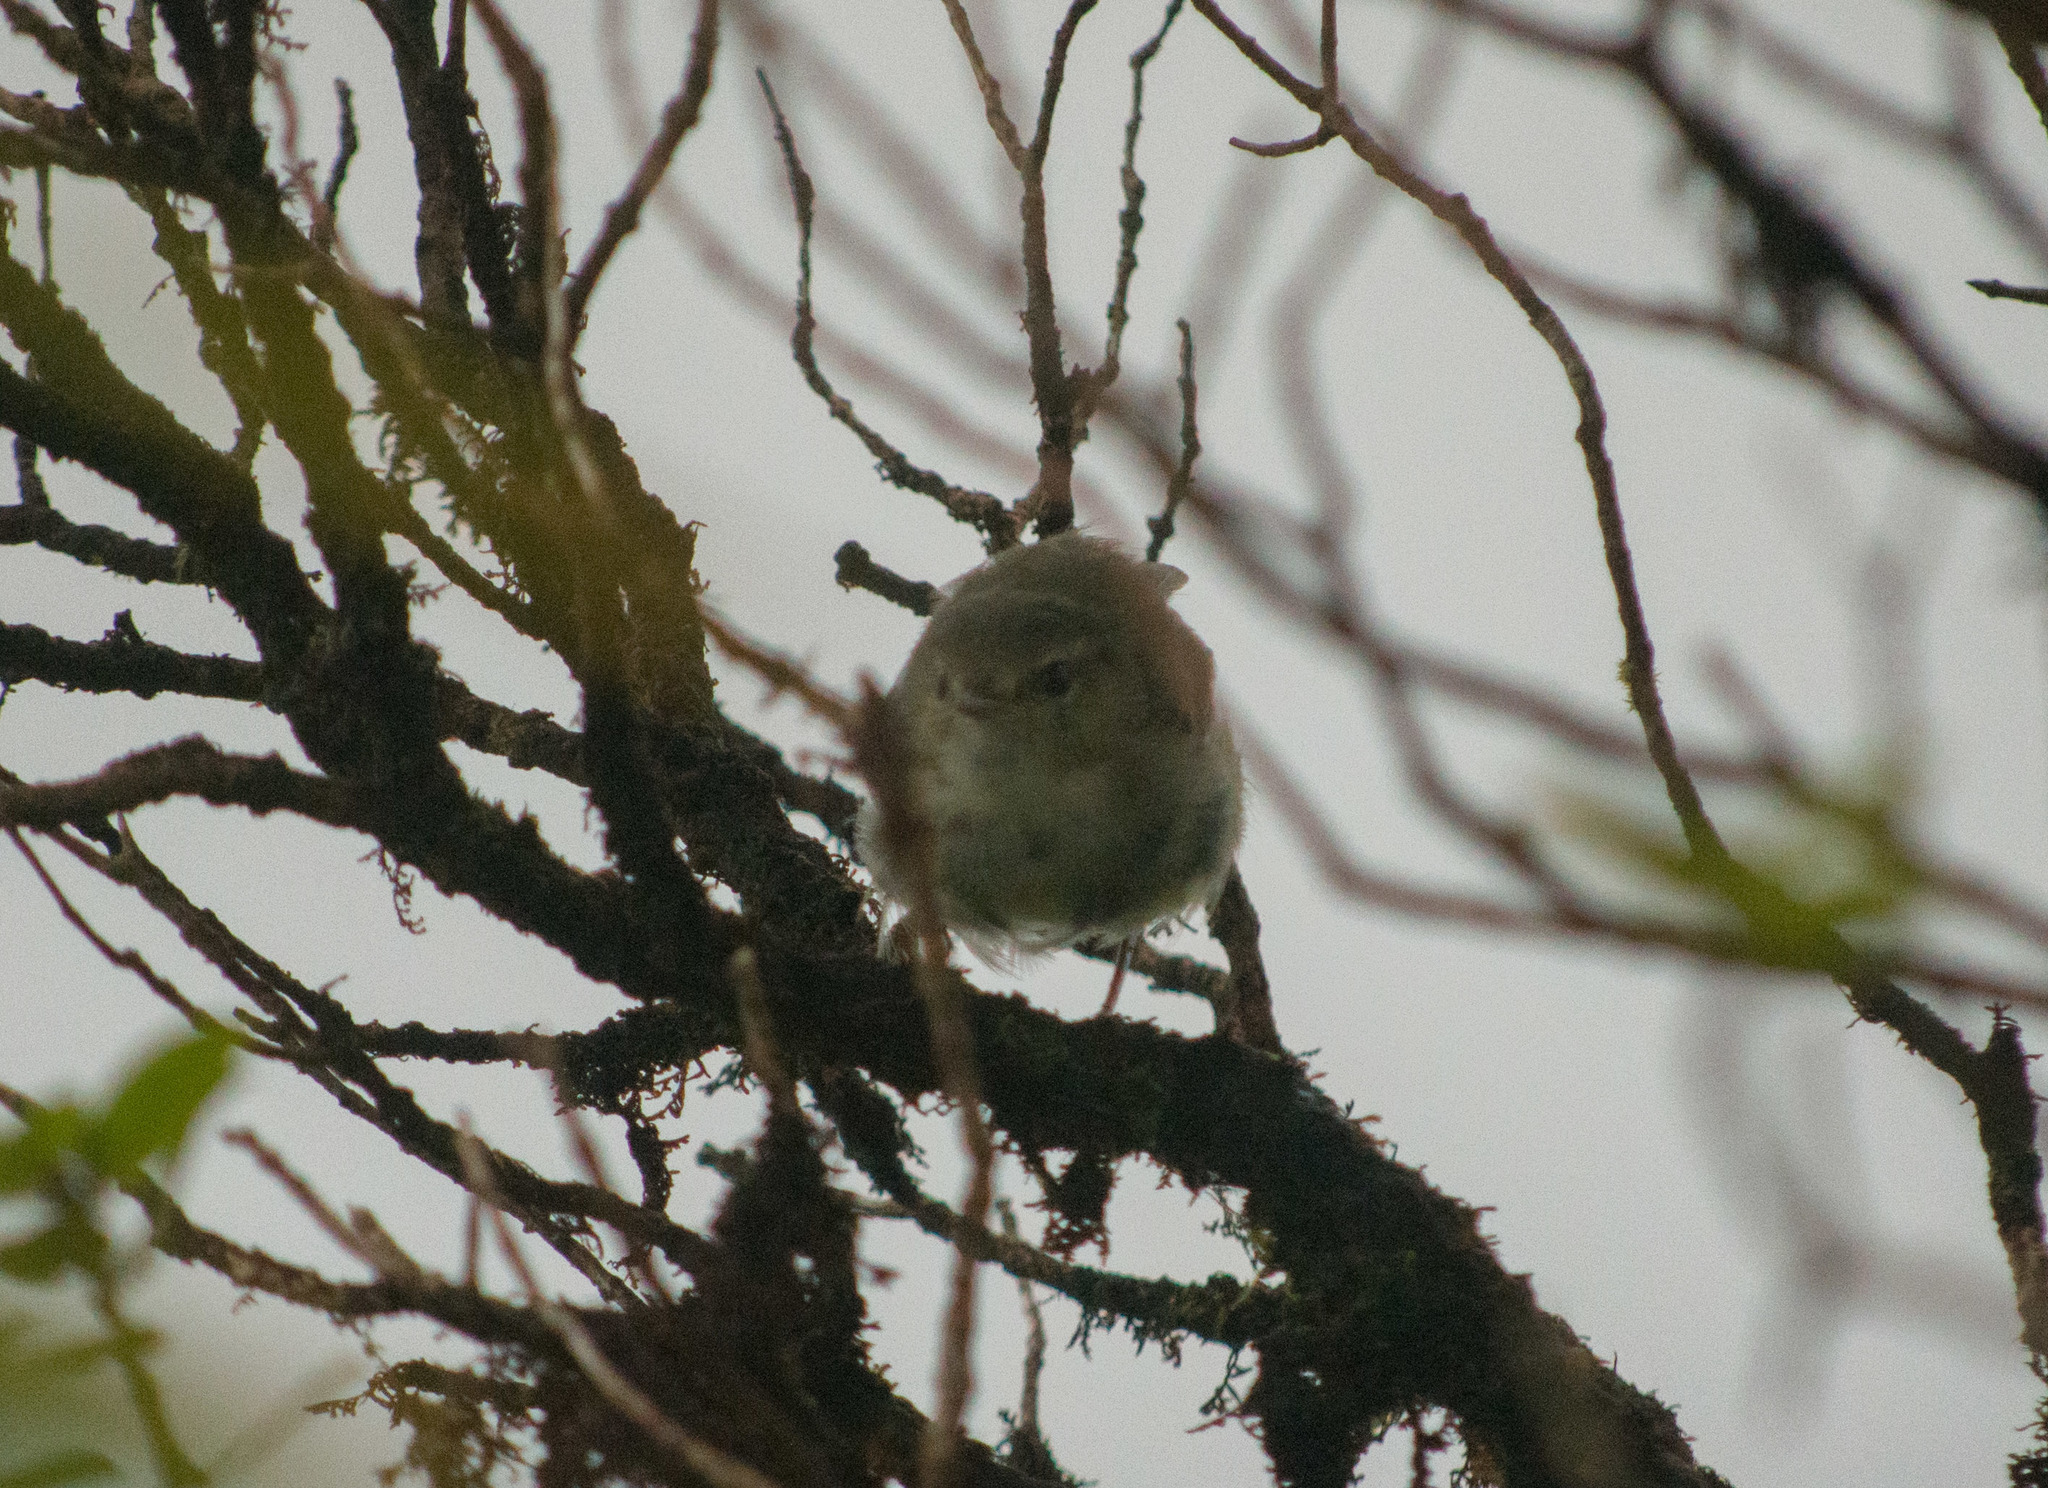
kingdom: Animalia
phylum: Chordata
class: Aves
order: Passeriformes
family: Cettiidae
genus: Horornis
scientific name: Horornis diphone
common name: Japanese bush warbler
